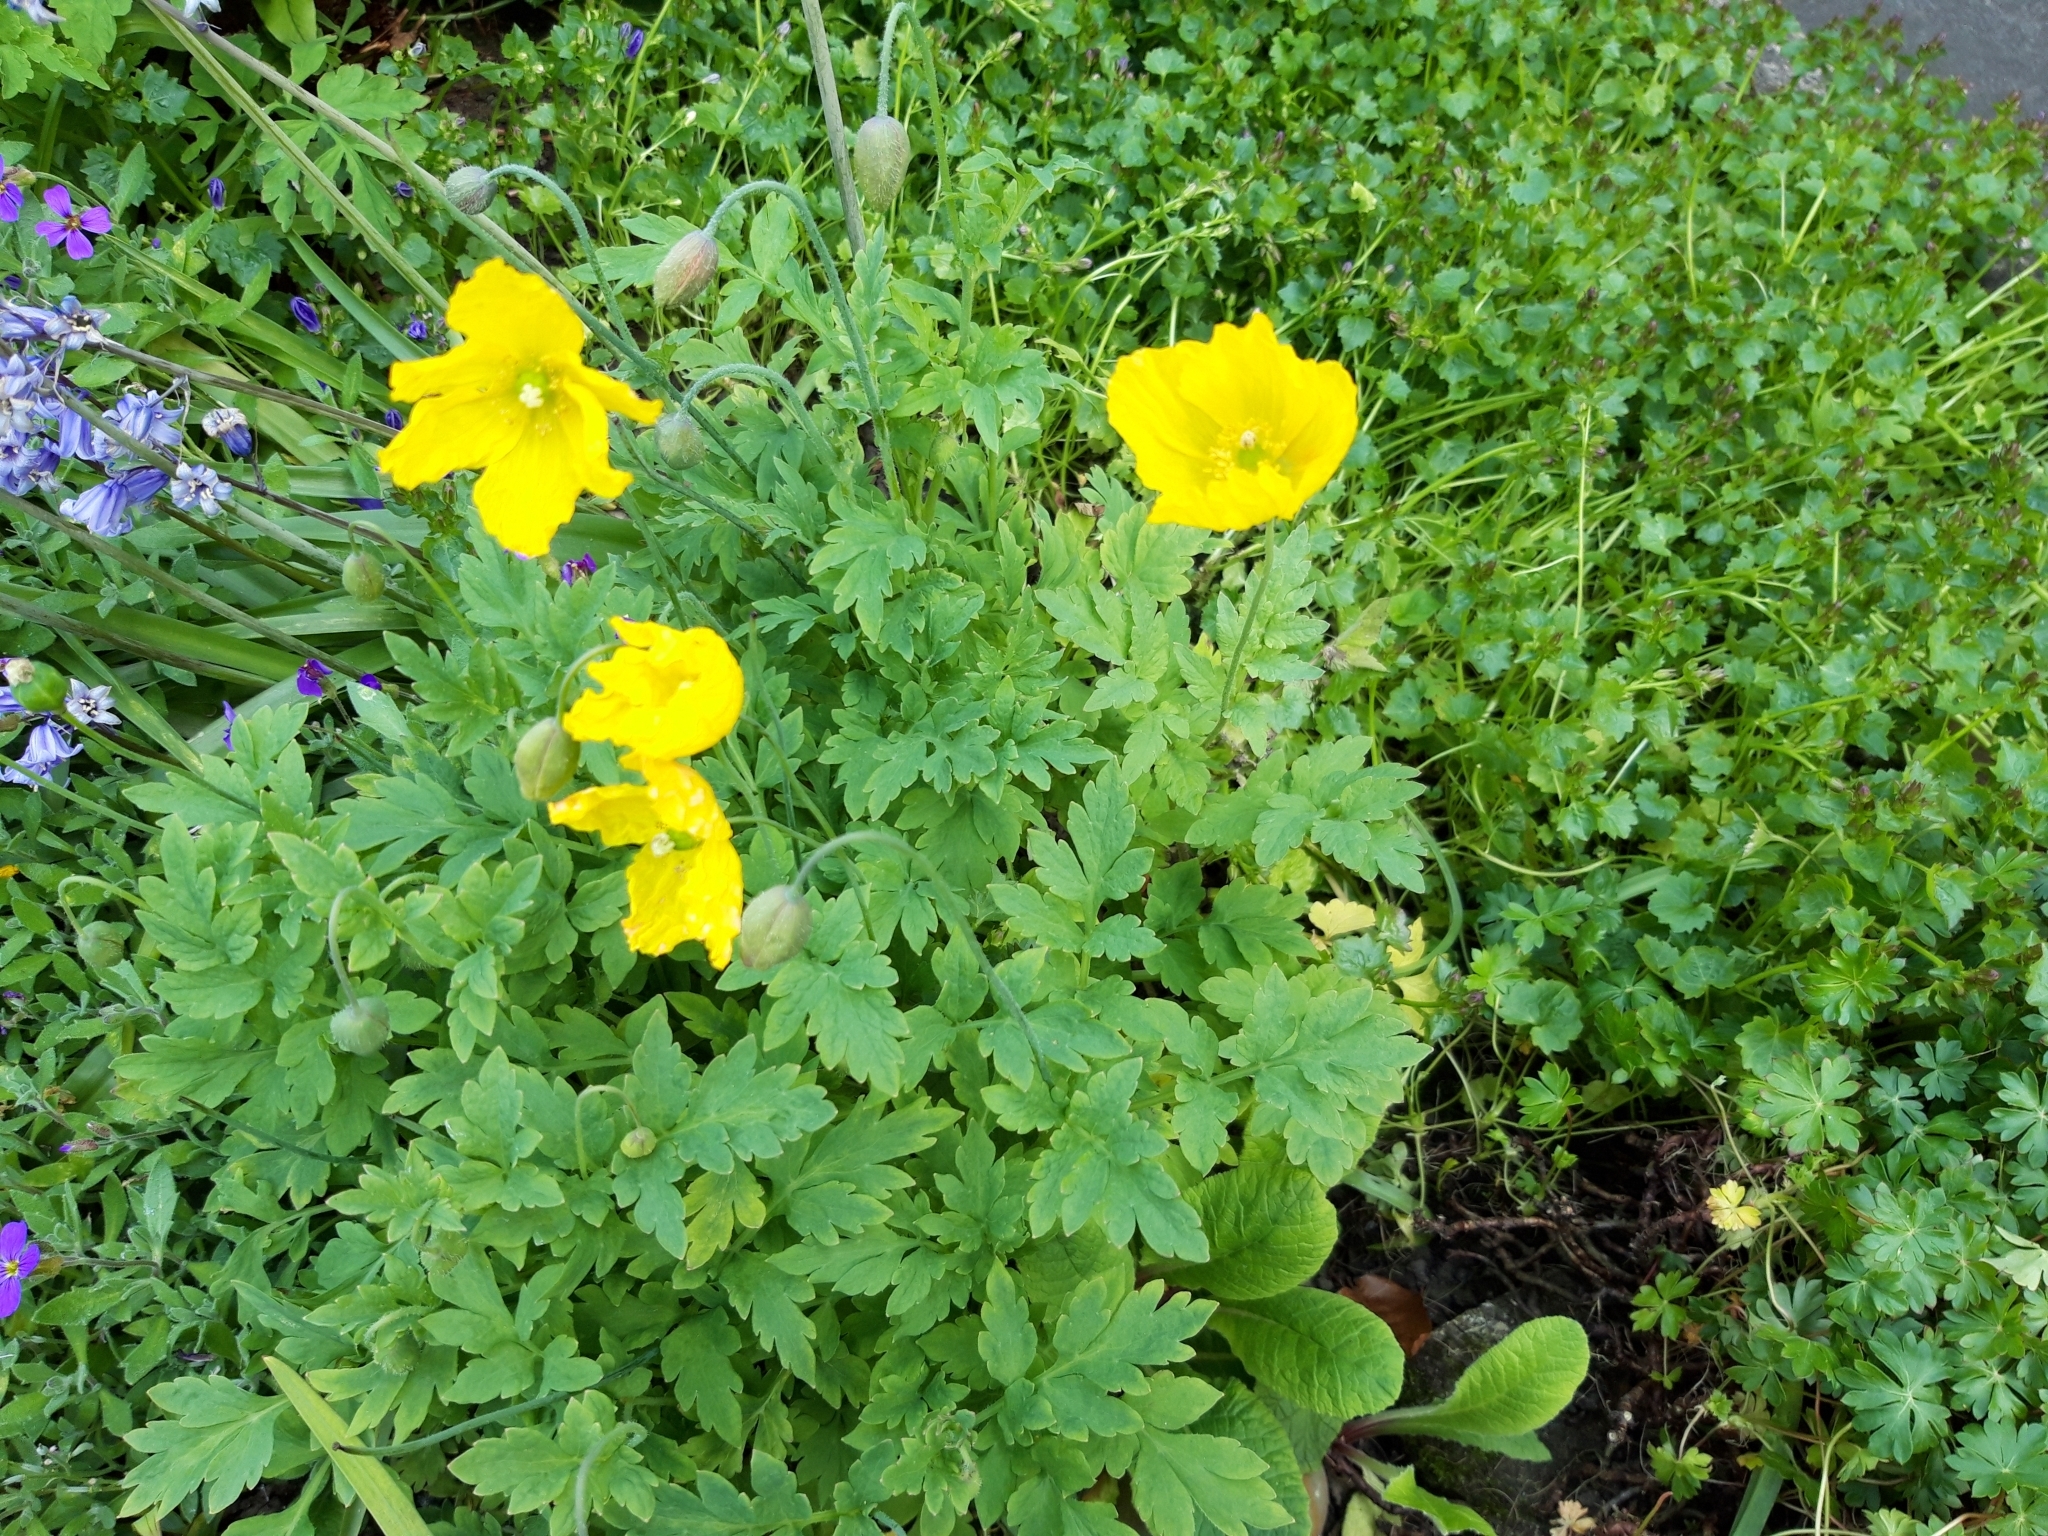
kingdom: Plantae
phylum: Tracheophyta
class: Magnoliopsida
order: Ranunculales
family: Papaveraceae
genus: Papaver
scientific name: Papaver cambricum
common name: Poppy
